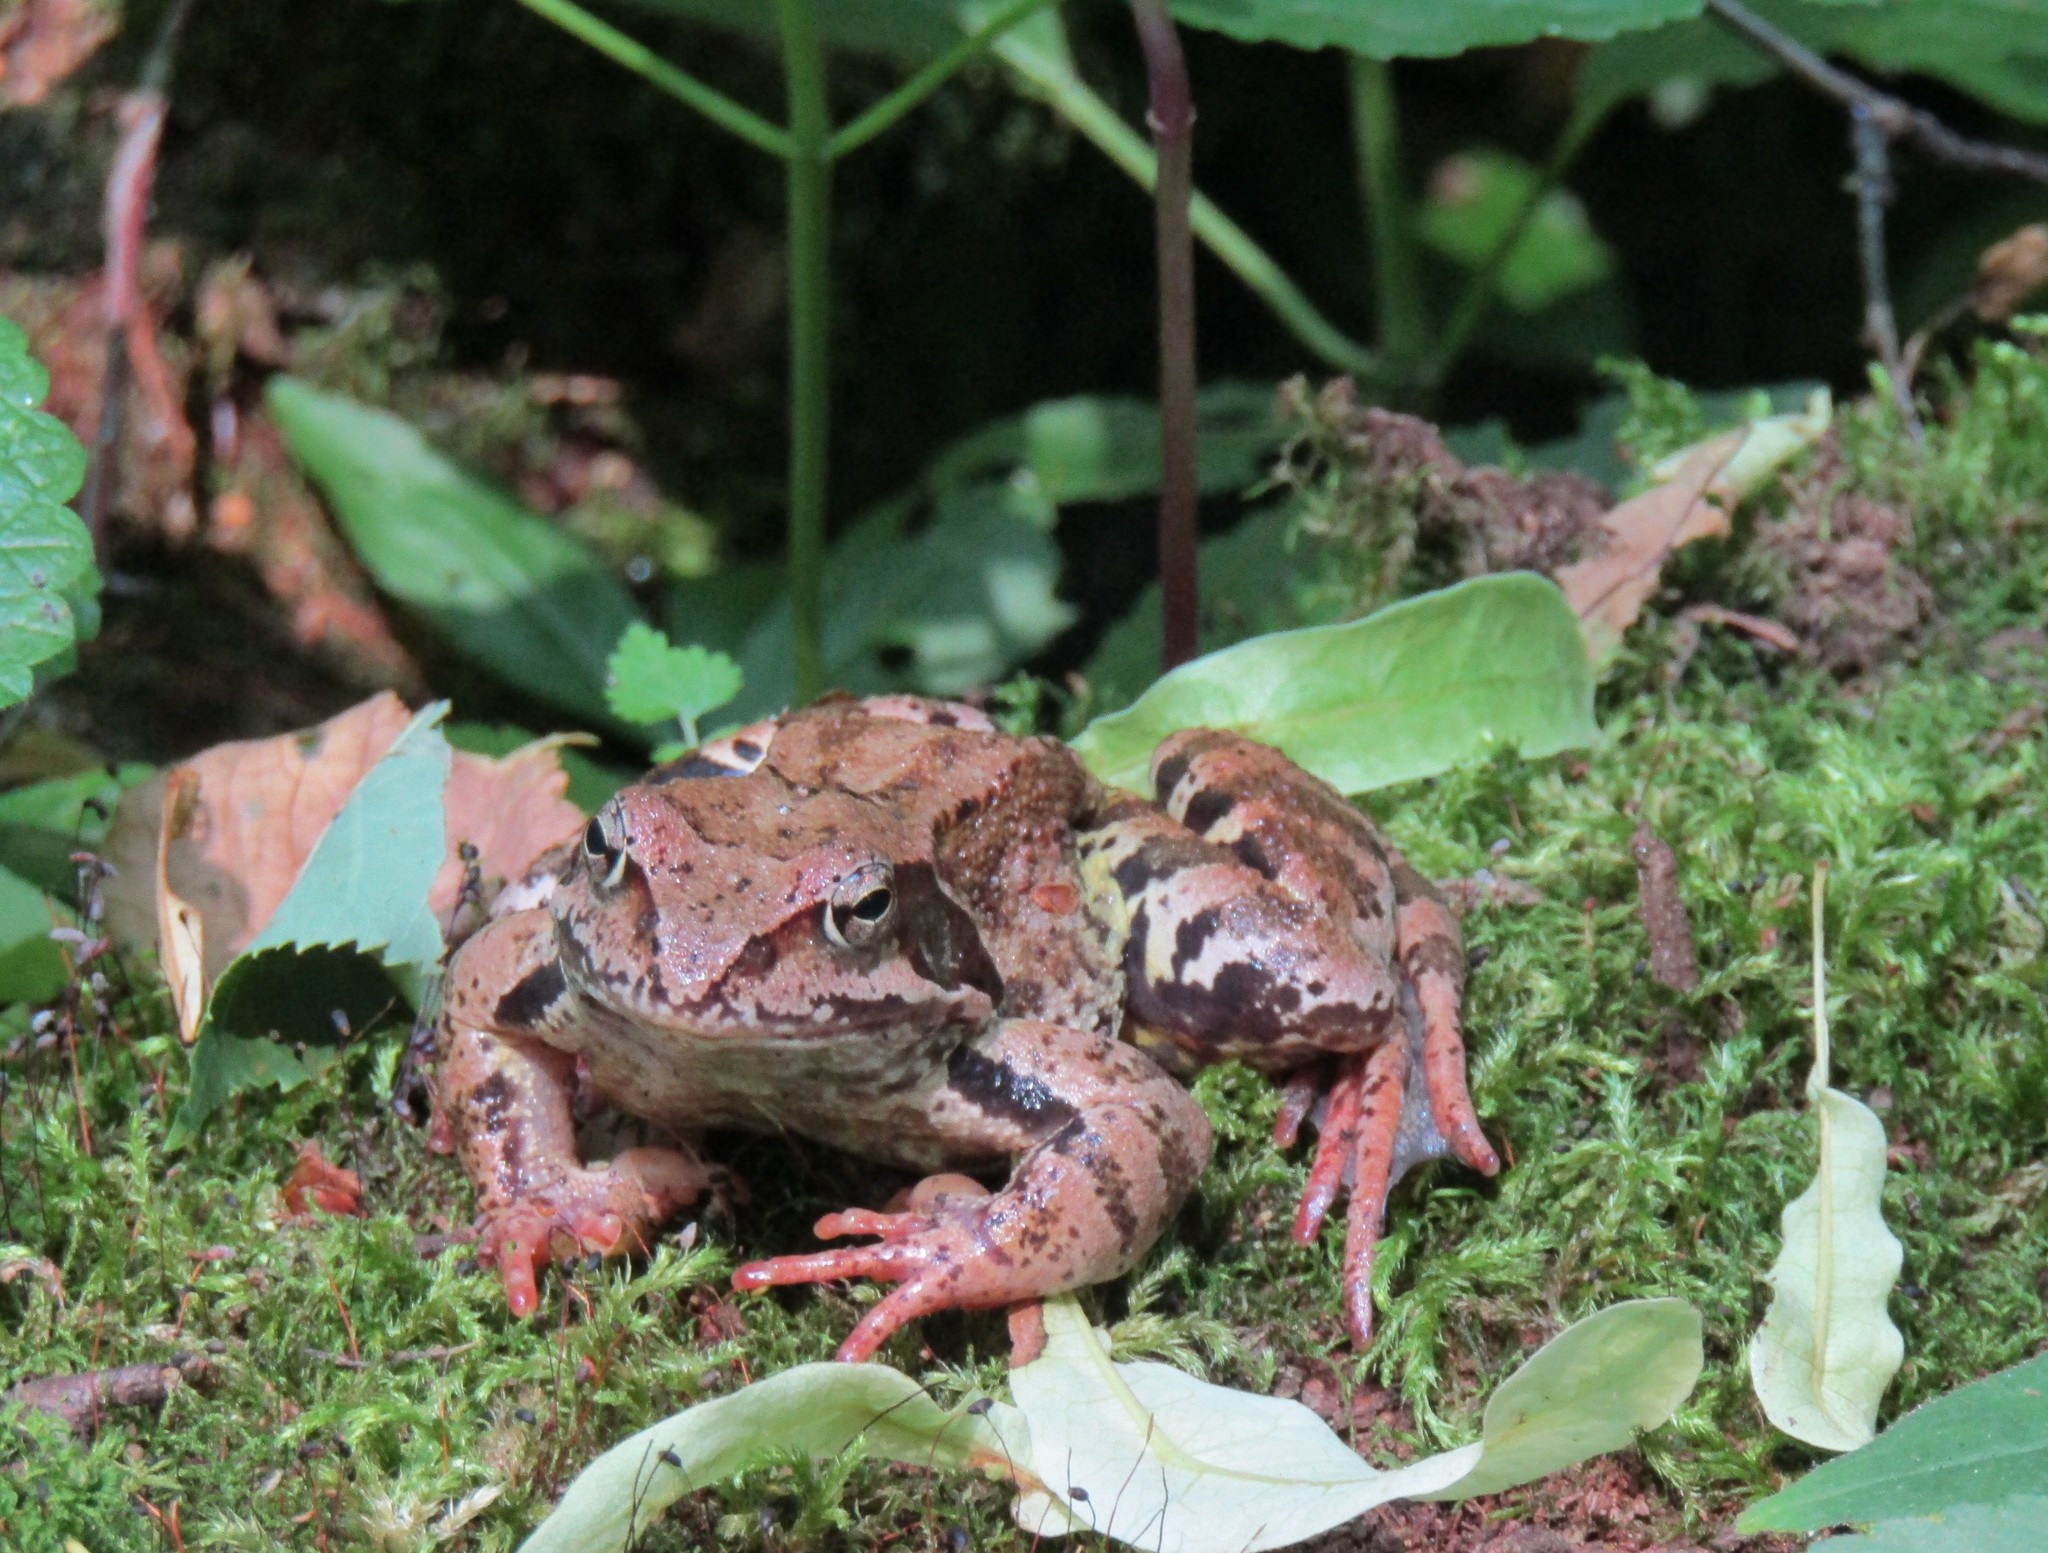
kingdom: Animalia
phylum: Chordata
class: Amphibia
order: Anura
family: Ranidae
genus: Rana
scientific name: Rana temporaria
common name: Common frog
